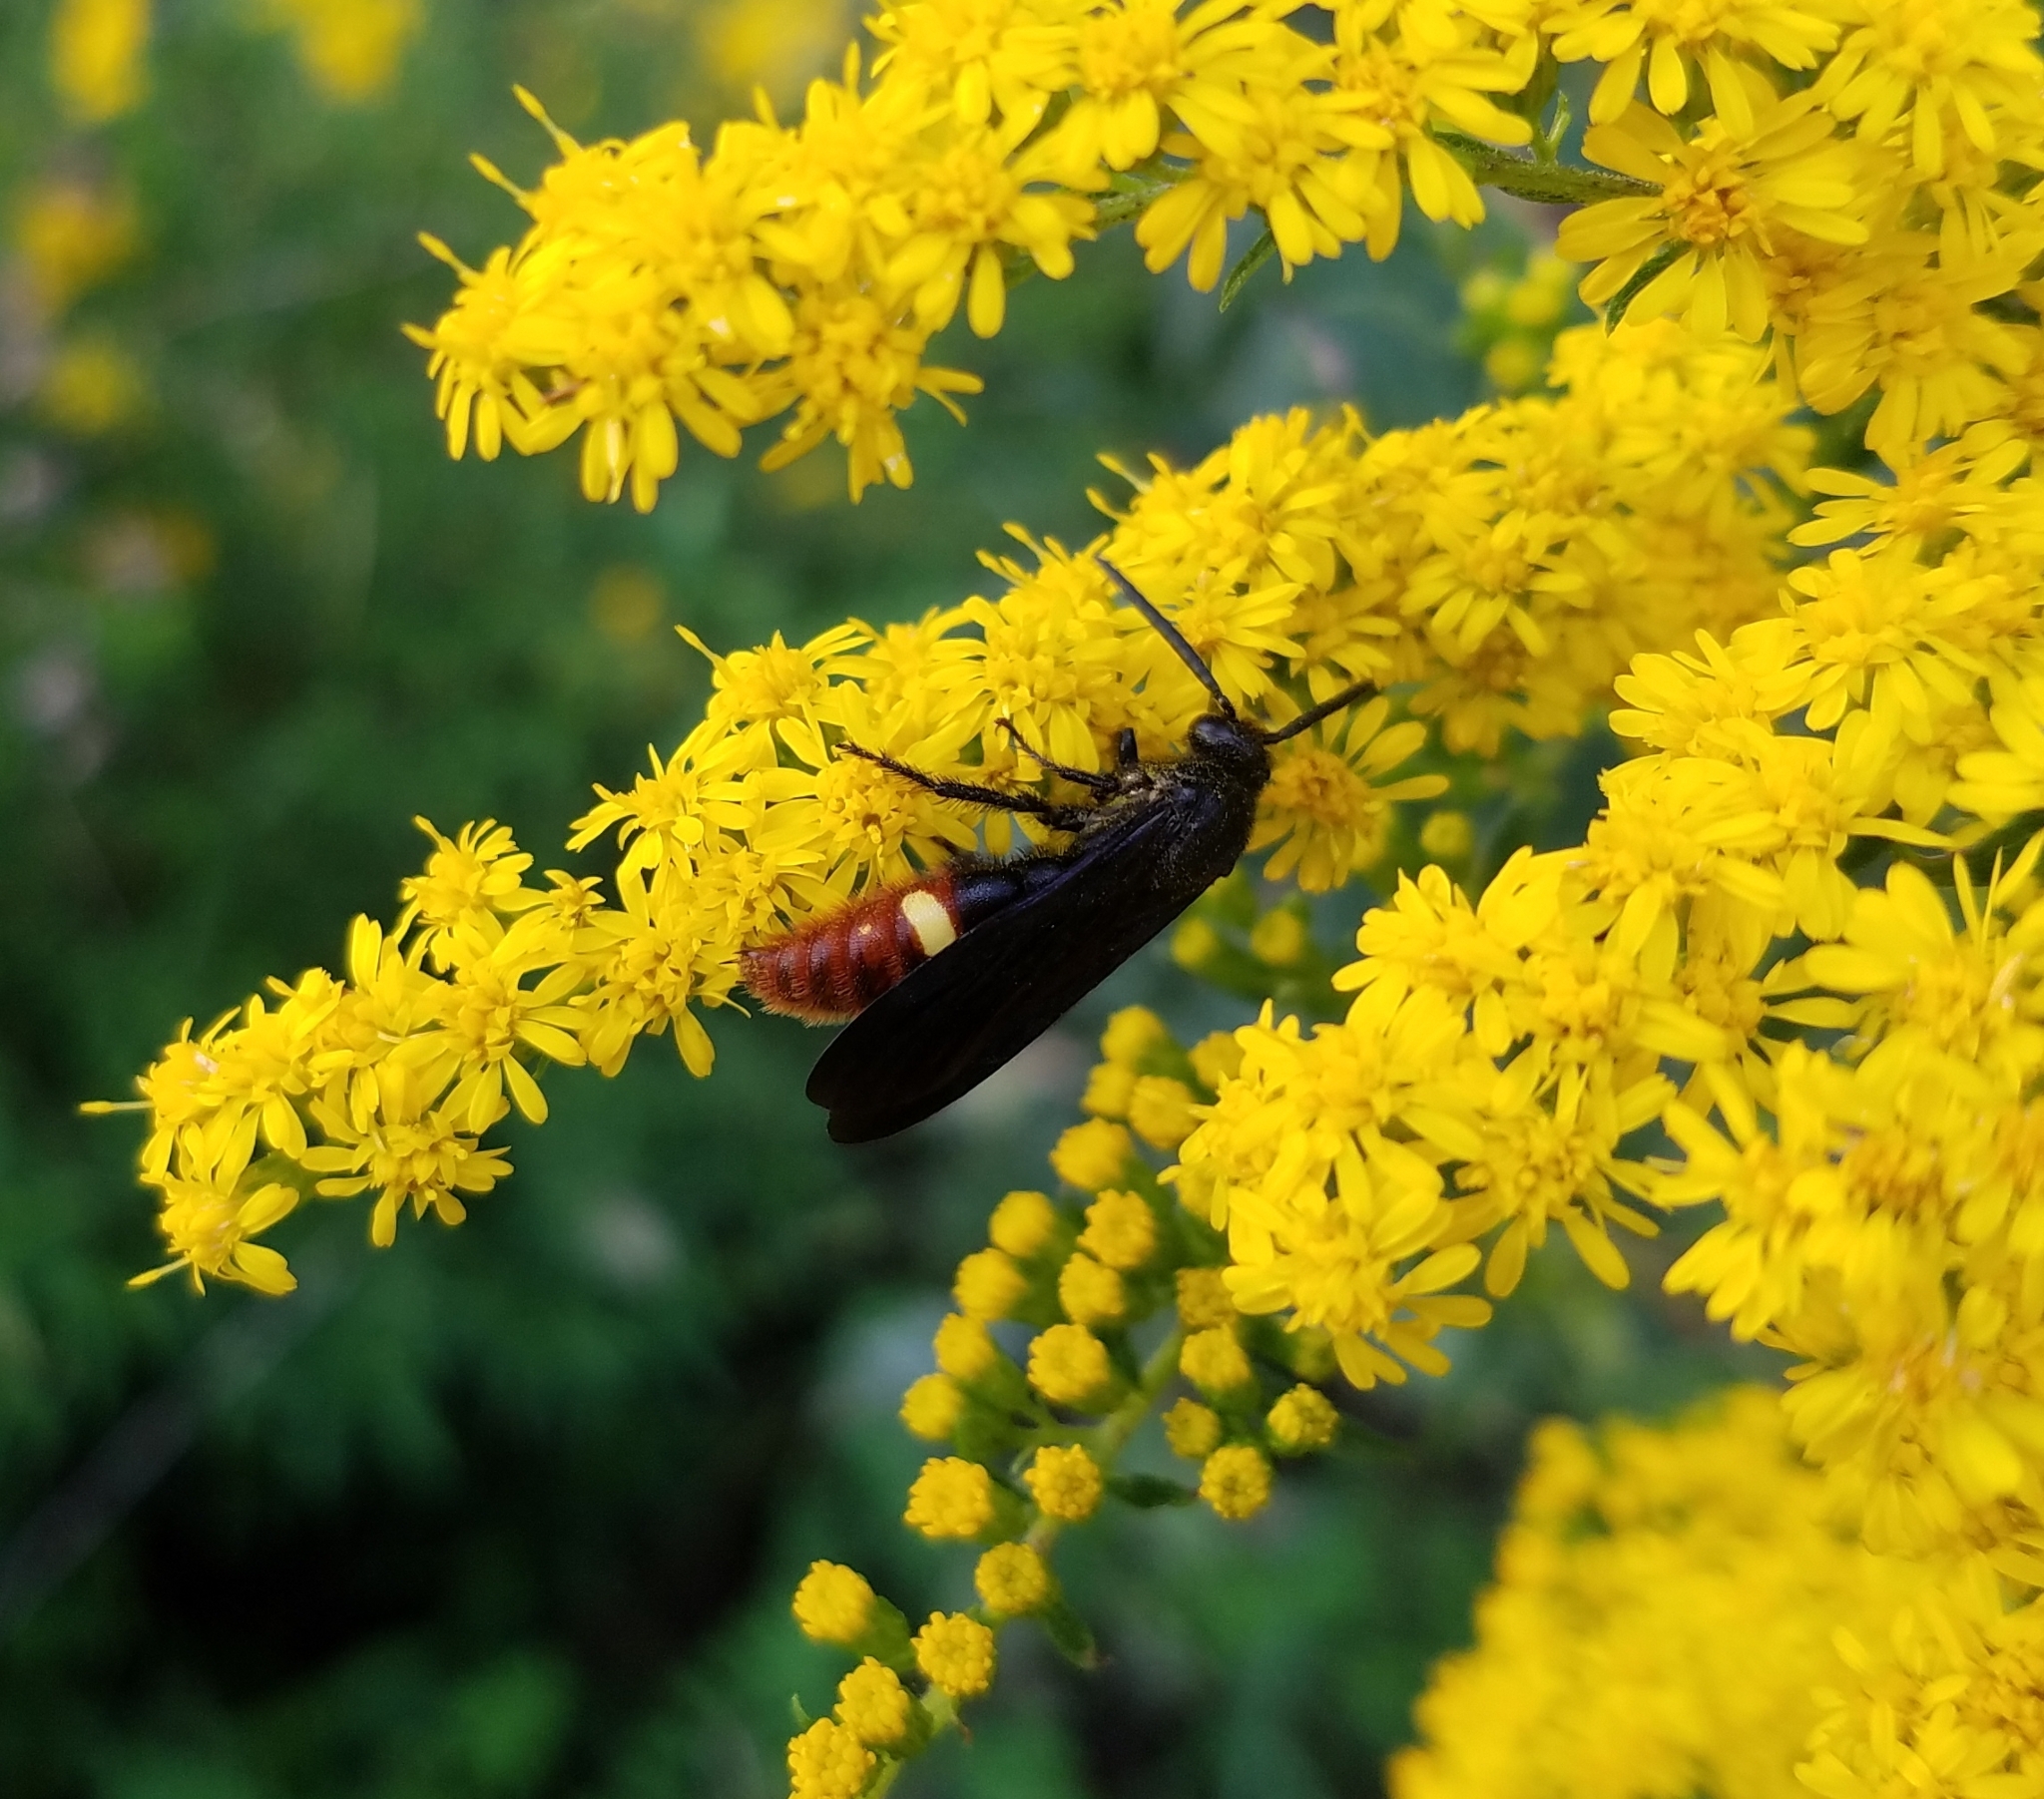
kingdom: Animalia
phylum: Arthropoda
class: Insecta
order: Hymenoptera
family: Scoliidae
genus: Scolia
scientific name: Scolia dubia
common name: Blue-winged scoliid wasp
